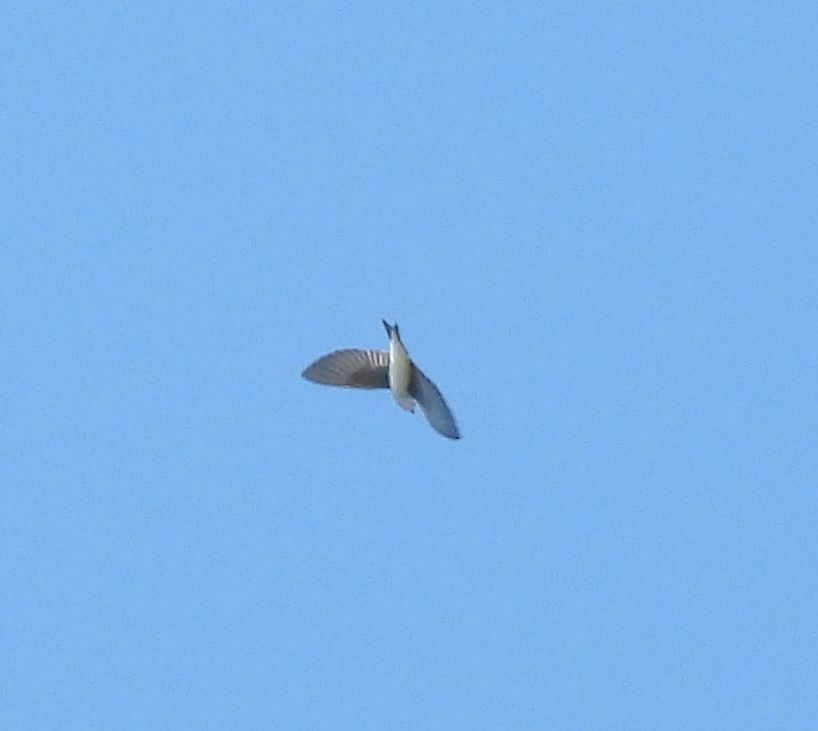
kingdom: Animalia
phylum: Chordata
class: Aves
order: Passeriformes
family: Hirundinidae
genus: Tachycineta
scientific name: Tachycineta bicolor
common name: Tree swallow
